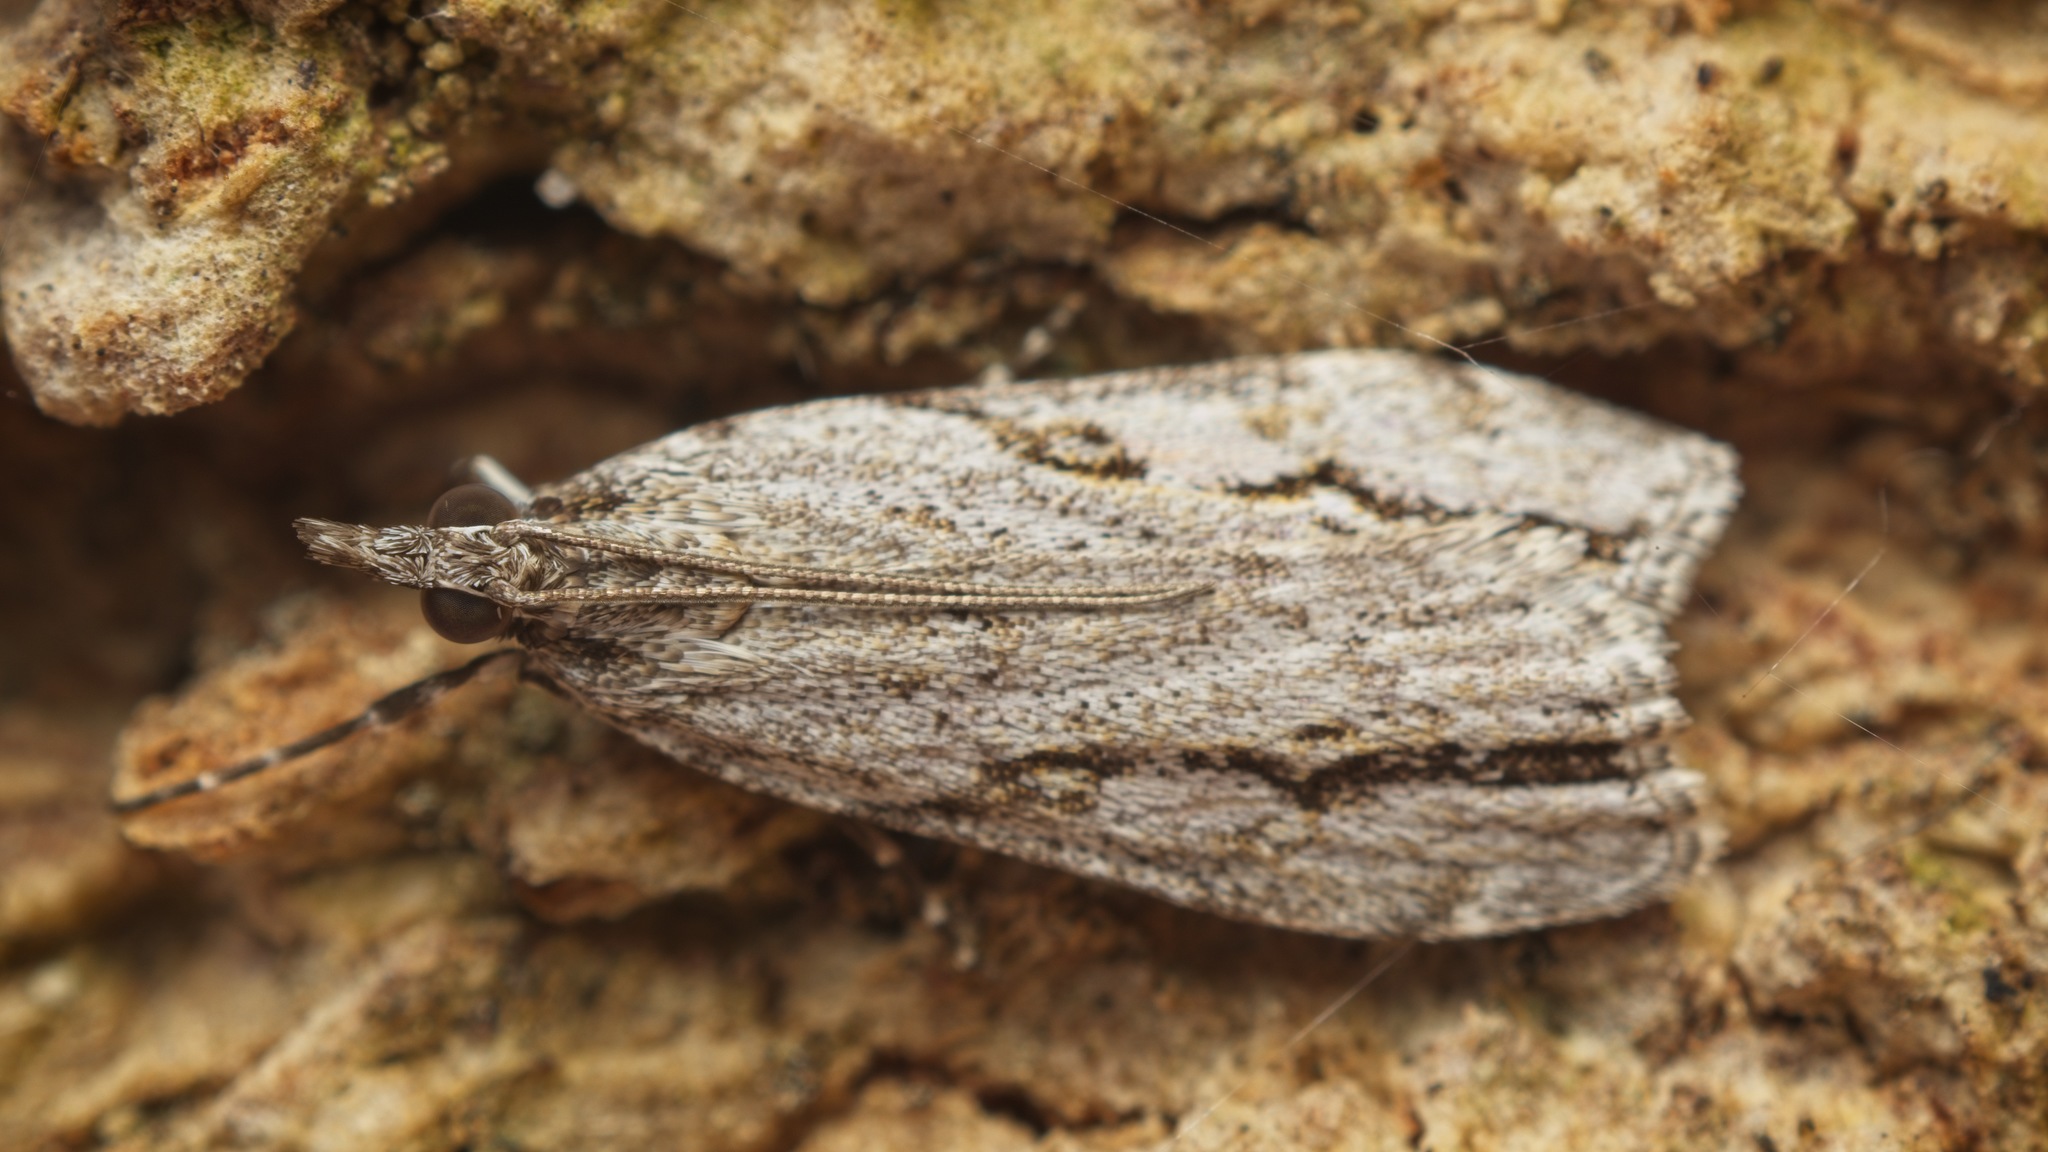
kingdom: Animalia
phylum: Arthropoda
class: Insecta
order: Lepidoptera
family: Crambidae
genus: Eudonia
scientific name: Eudonia bisinualis
